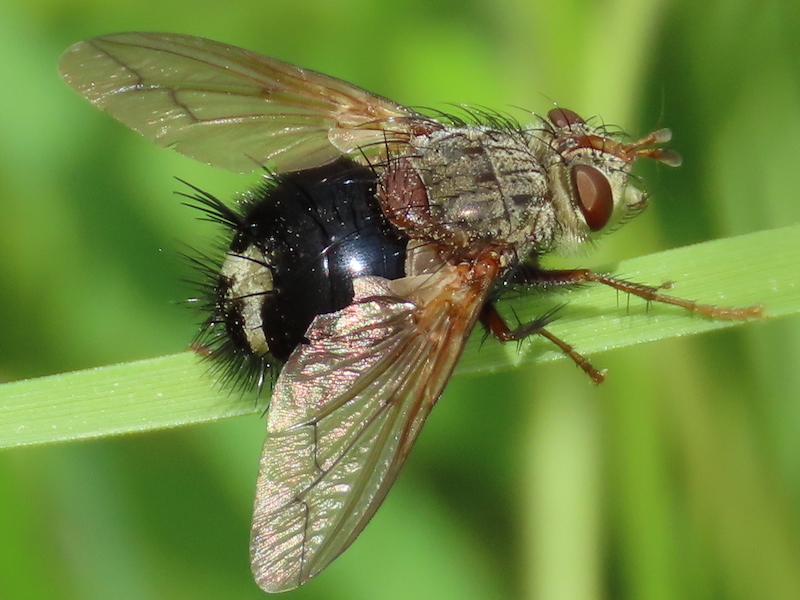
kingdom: Animalia
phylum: Arthropoda
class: Insecta
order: Diptera
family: Tachinidae
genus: Epalpus
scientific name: Epalpus signifer
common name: Early tachinid fly
